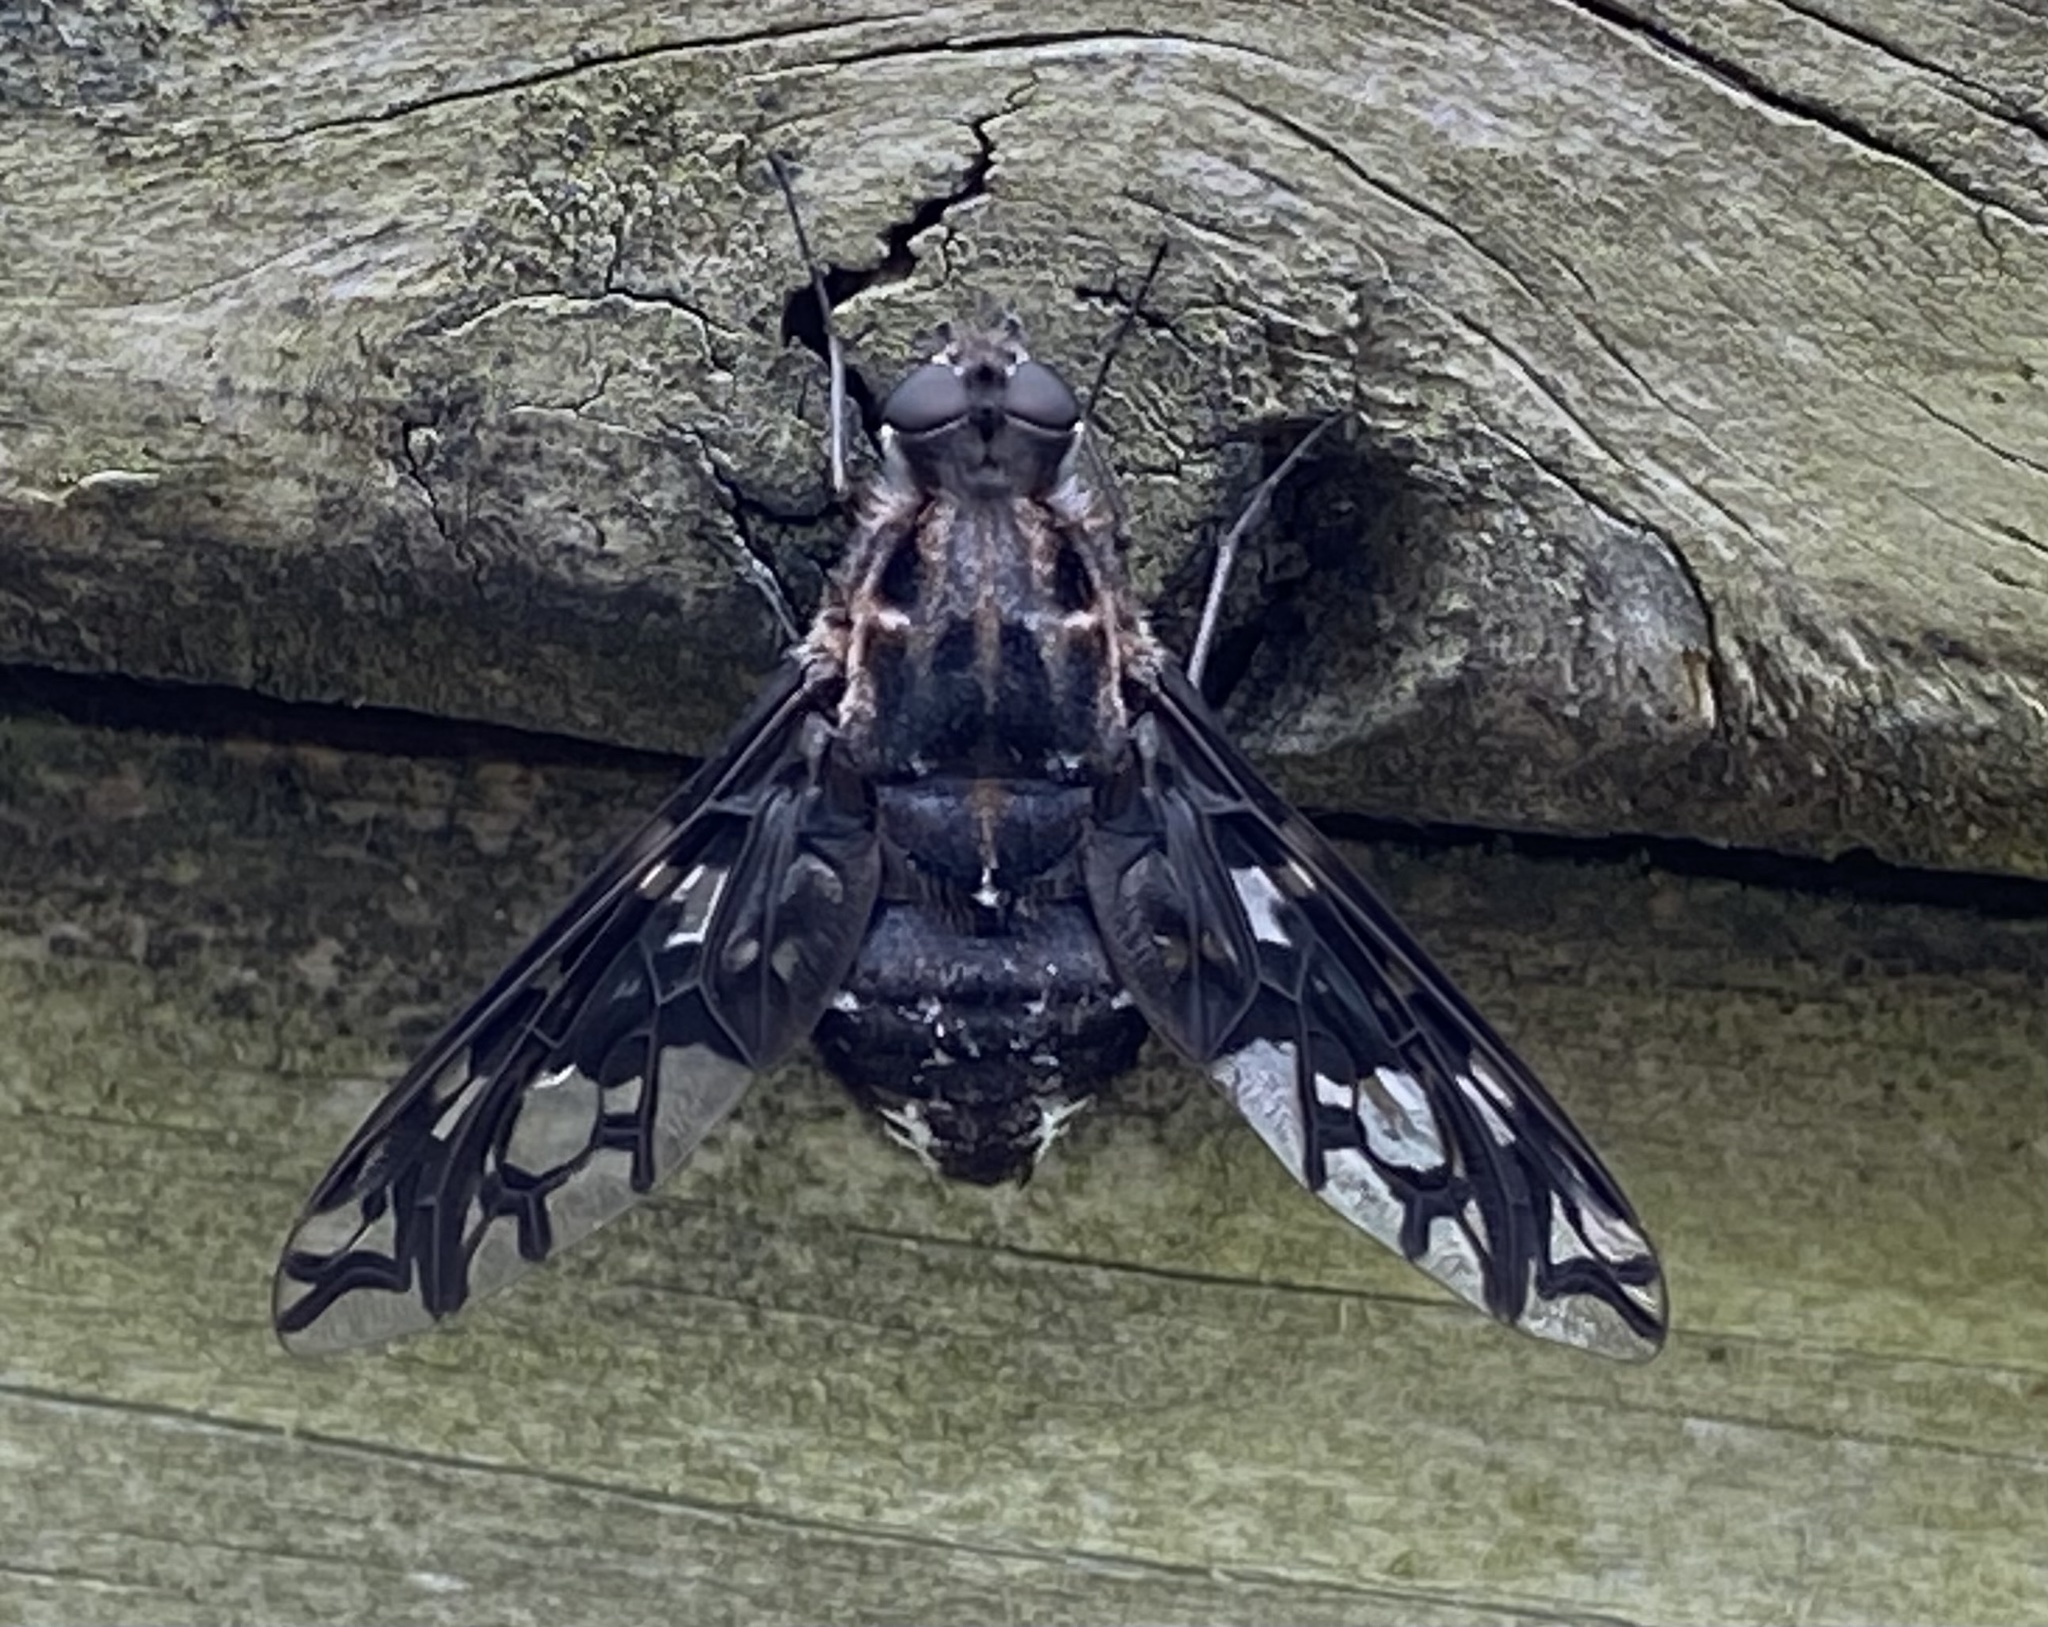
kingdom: Animalia
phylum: Arthropoda
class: Insecta
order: Diptera
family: Bombyliidae
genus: Xenox
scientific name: Xenox tigrinus
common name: Tiger bee fly
